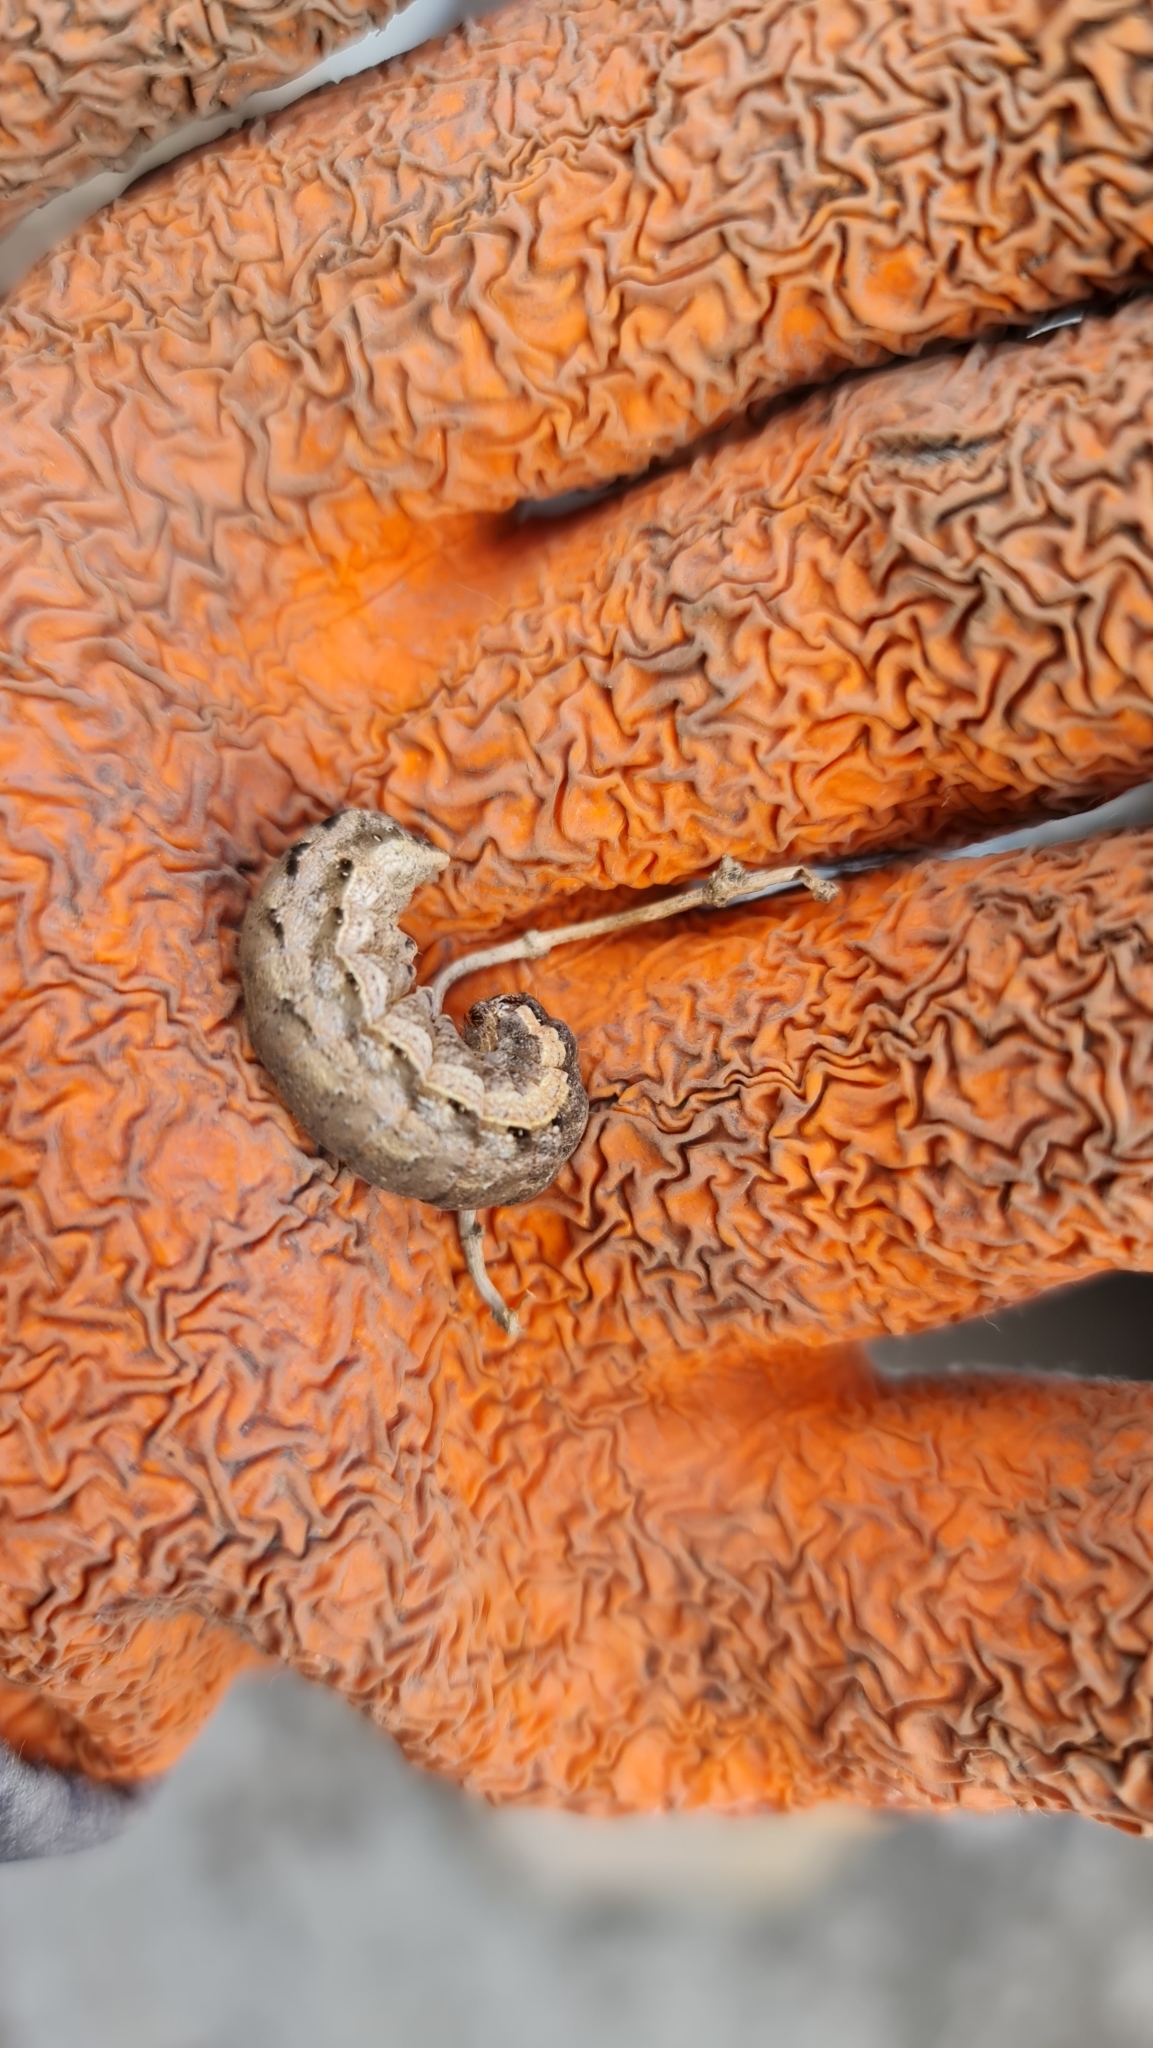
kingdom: Animalia
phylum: Arthropoda
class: Insecta
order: Lepidoptera
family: Noctuidae
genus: Noctua
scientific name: Noctua comes
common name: Lesser yellow underwing
